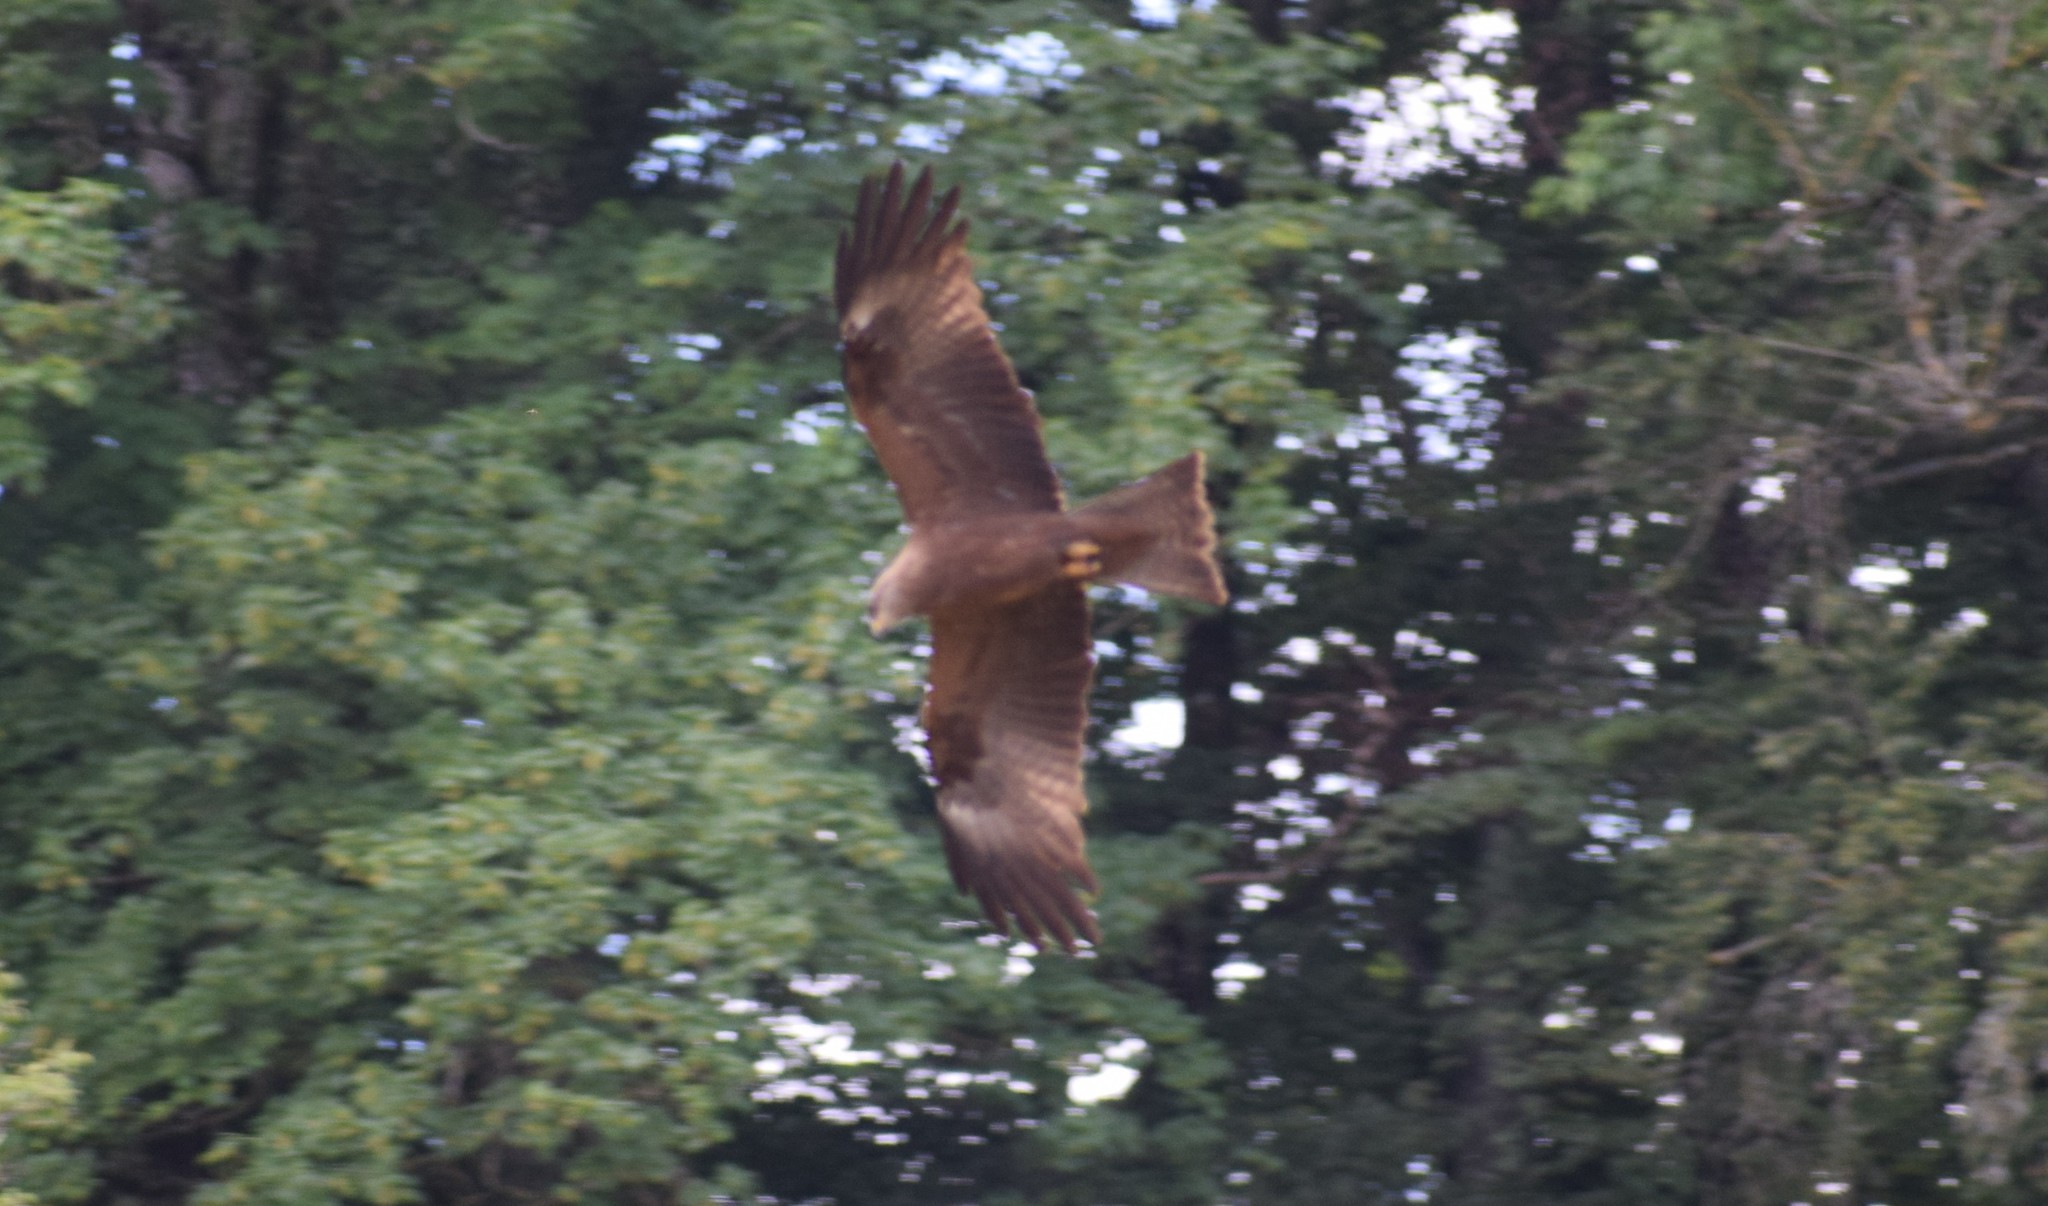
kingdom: Animalia
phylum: Chordata
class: Aves
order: Accipitriformes
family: Accipitridae
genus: Milvus
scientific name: Milvus migrans
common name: Black kite
